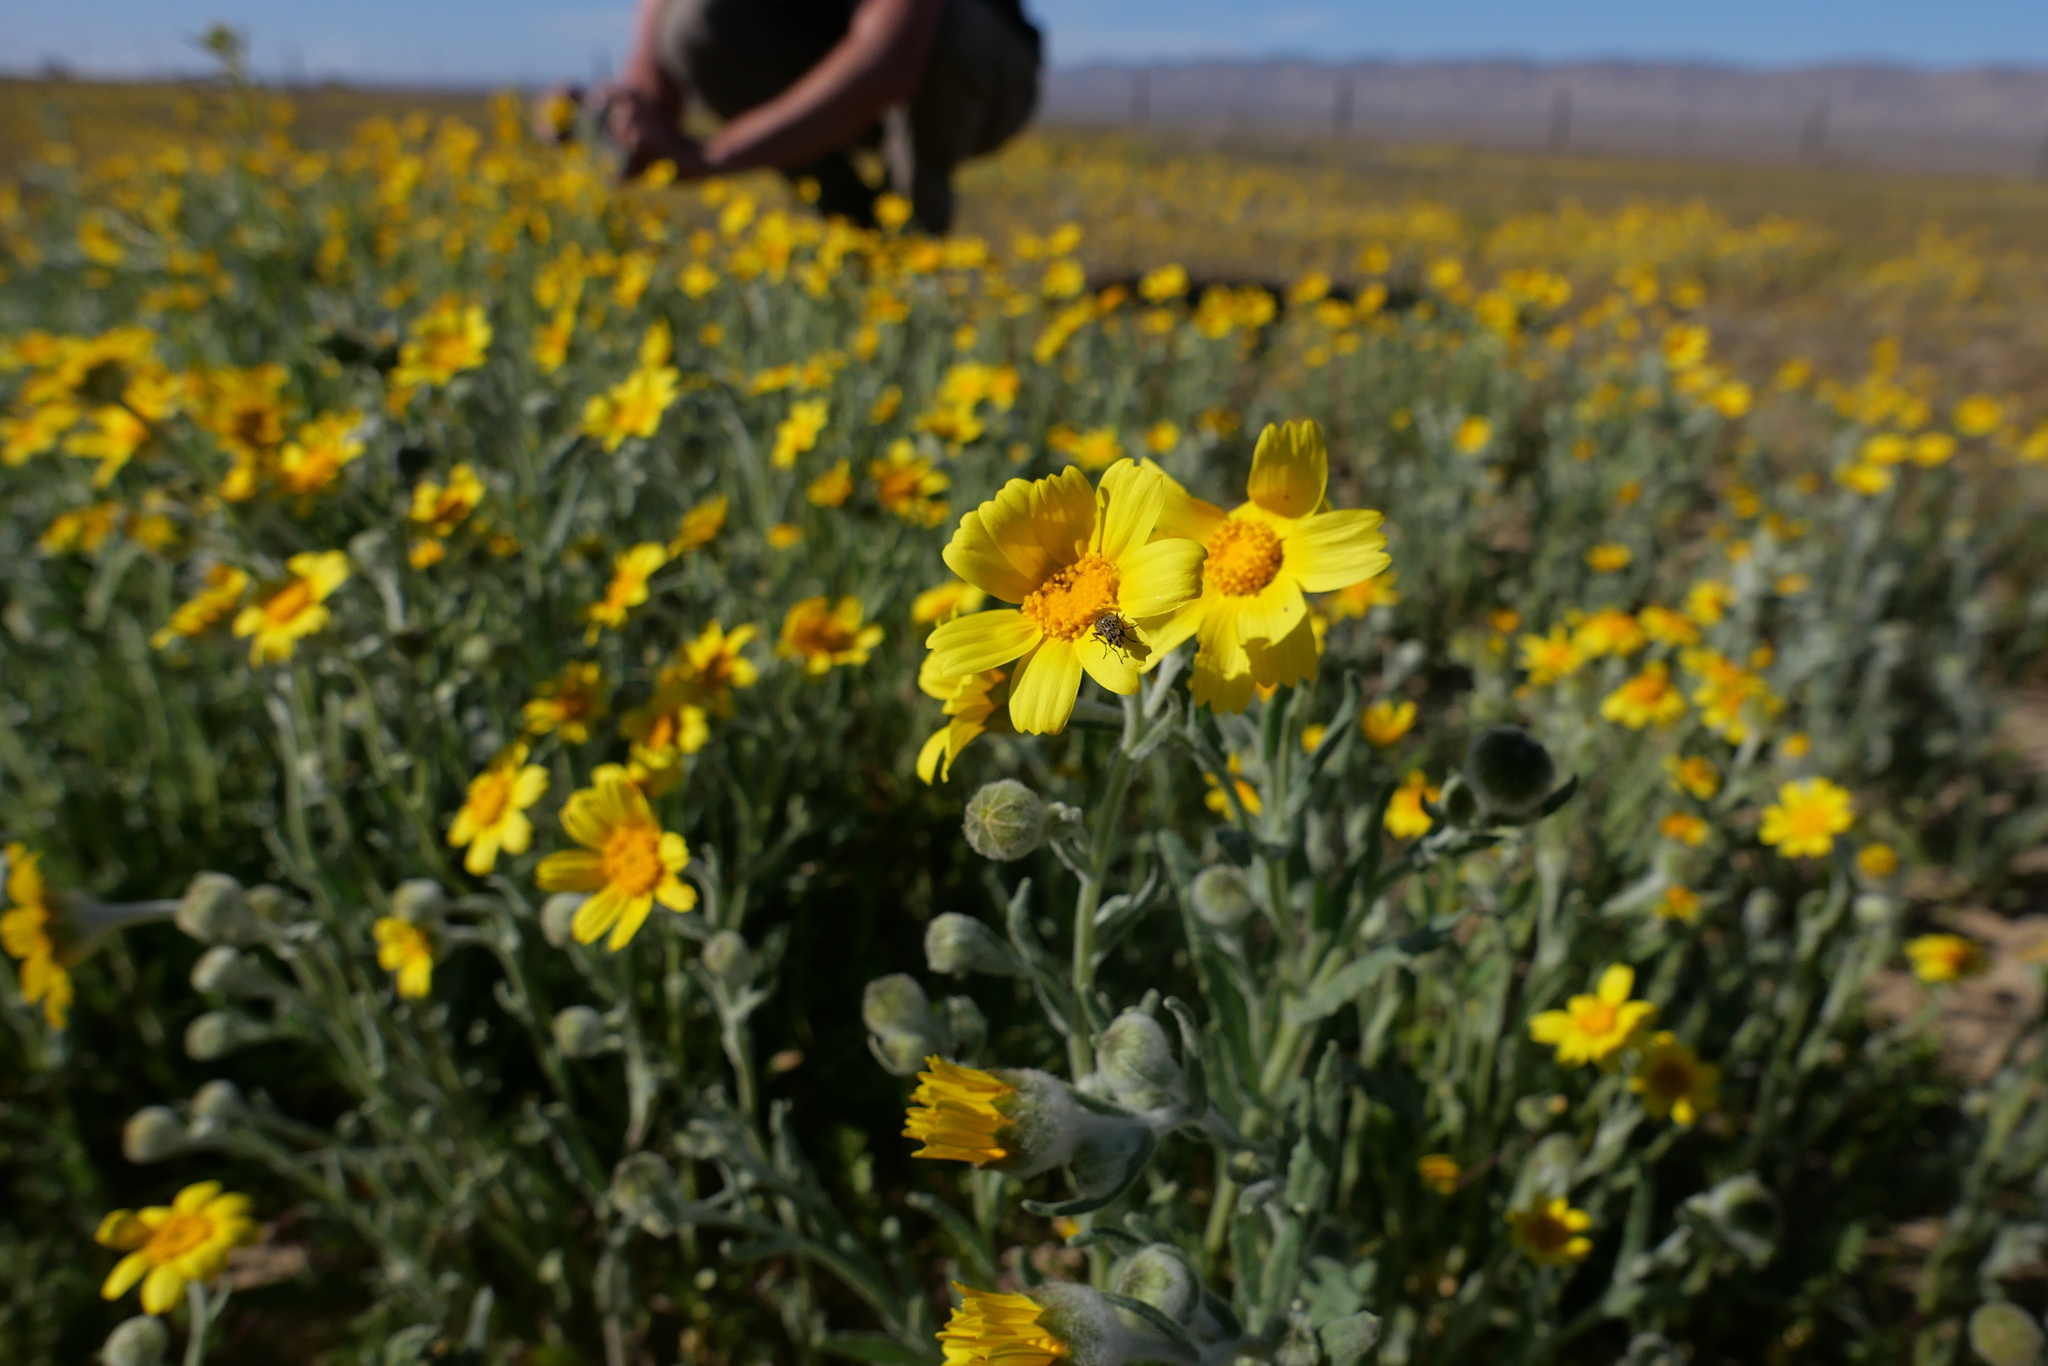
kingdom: Plantae
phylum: Tracheophyta
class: Magnoliopsida
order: Asterales
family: Asteraceae
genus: Monolopia
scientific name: Monolopia lanceolata
